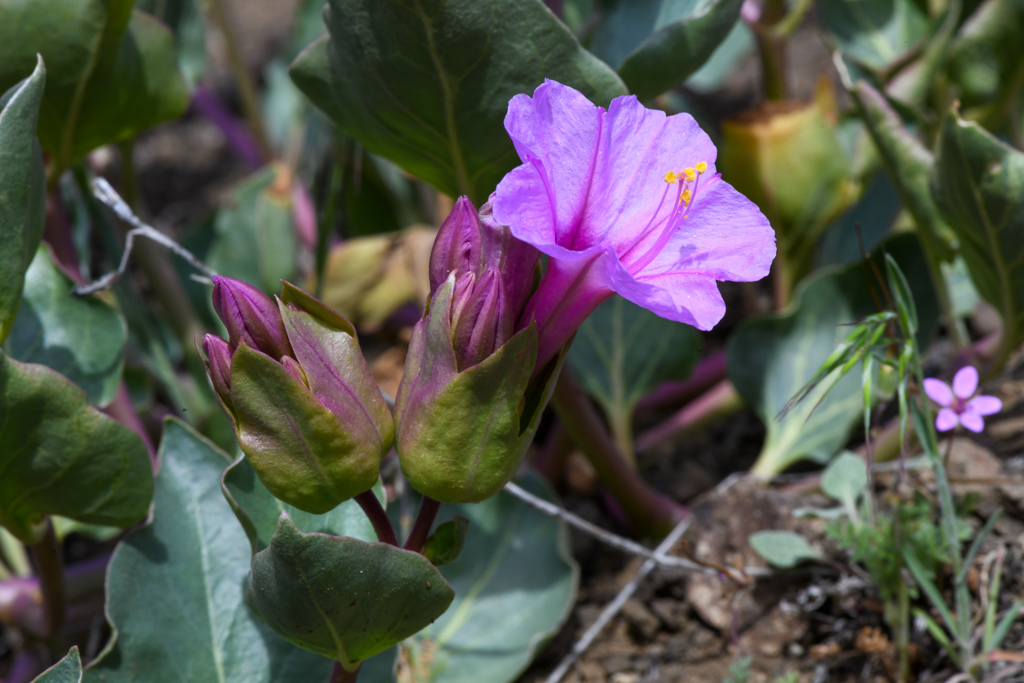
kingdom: Plantae
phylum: Tracheophyta
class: Magnoliopsida
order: Caryophyllales
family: Nyctaginaceae
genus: Mirabilis
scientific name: Mirabilis greenei
